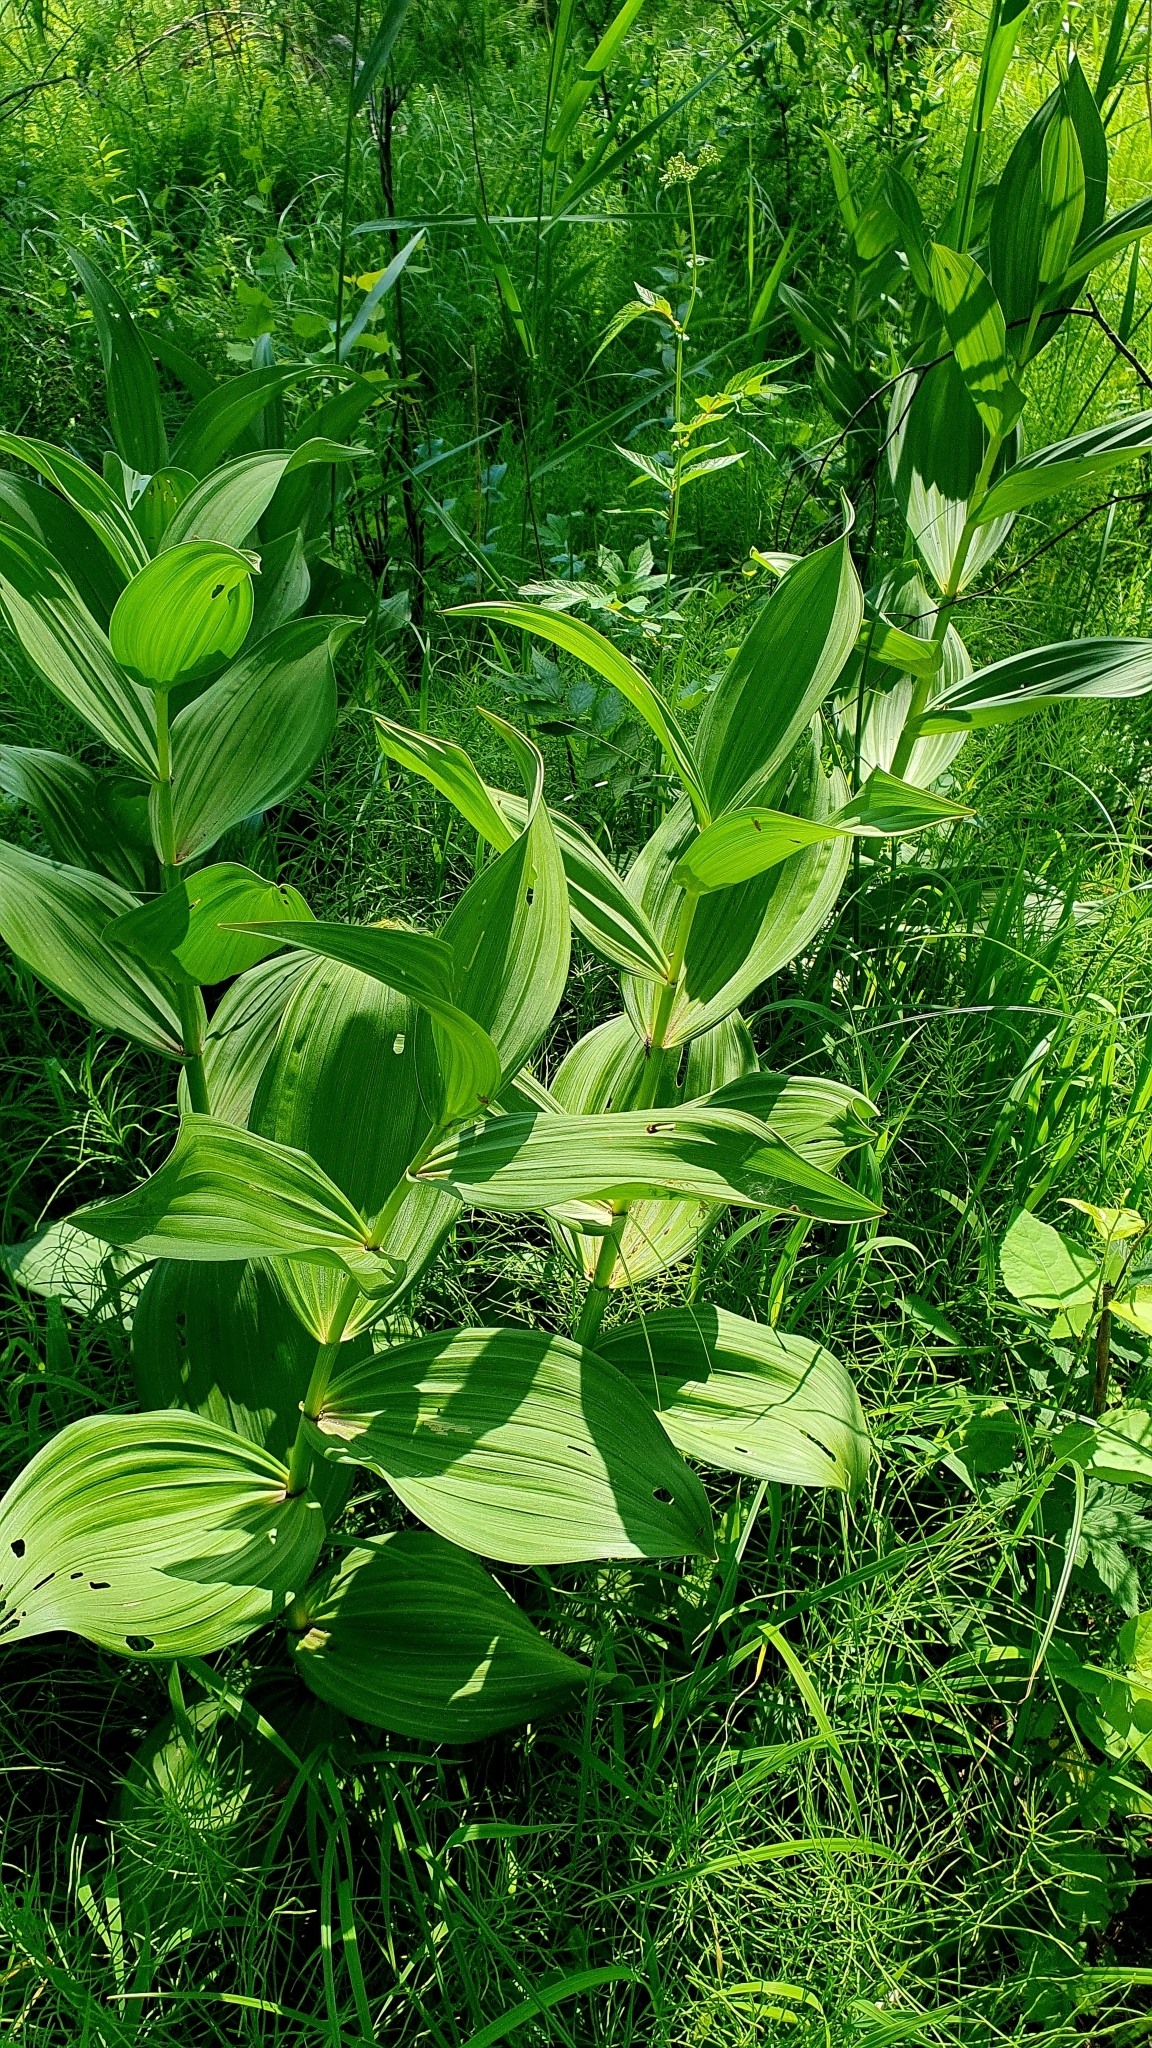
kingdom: Plantae
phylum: Tracheophyta
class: Liliopsida
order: Liliales
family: Melanthiaceae
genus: Veratrum
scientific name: Veratrum lobelianum
